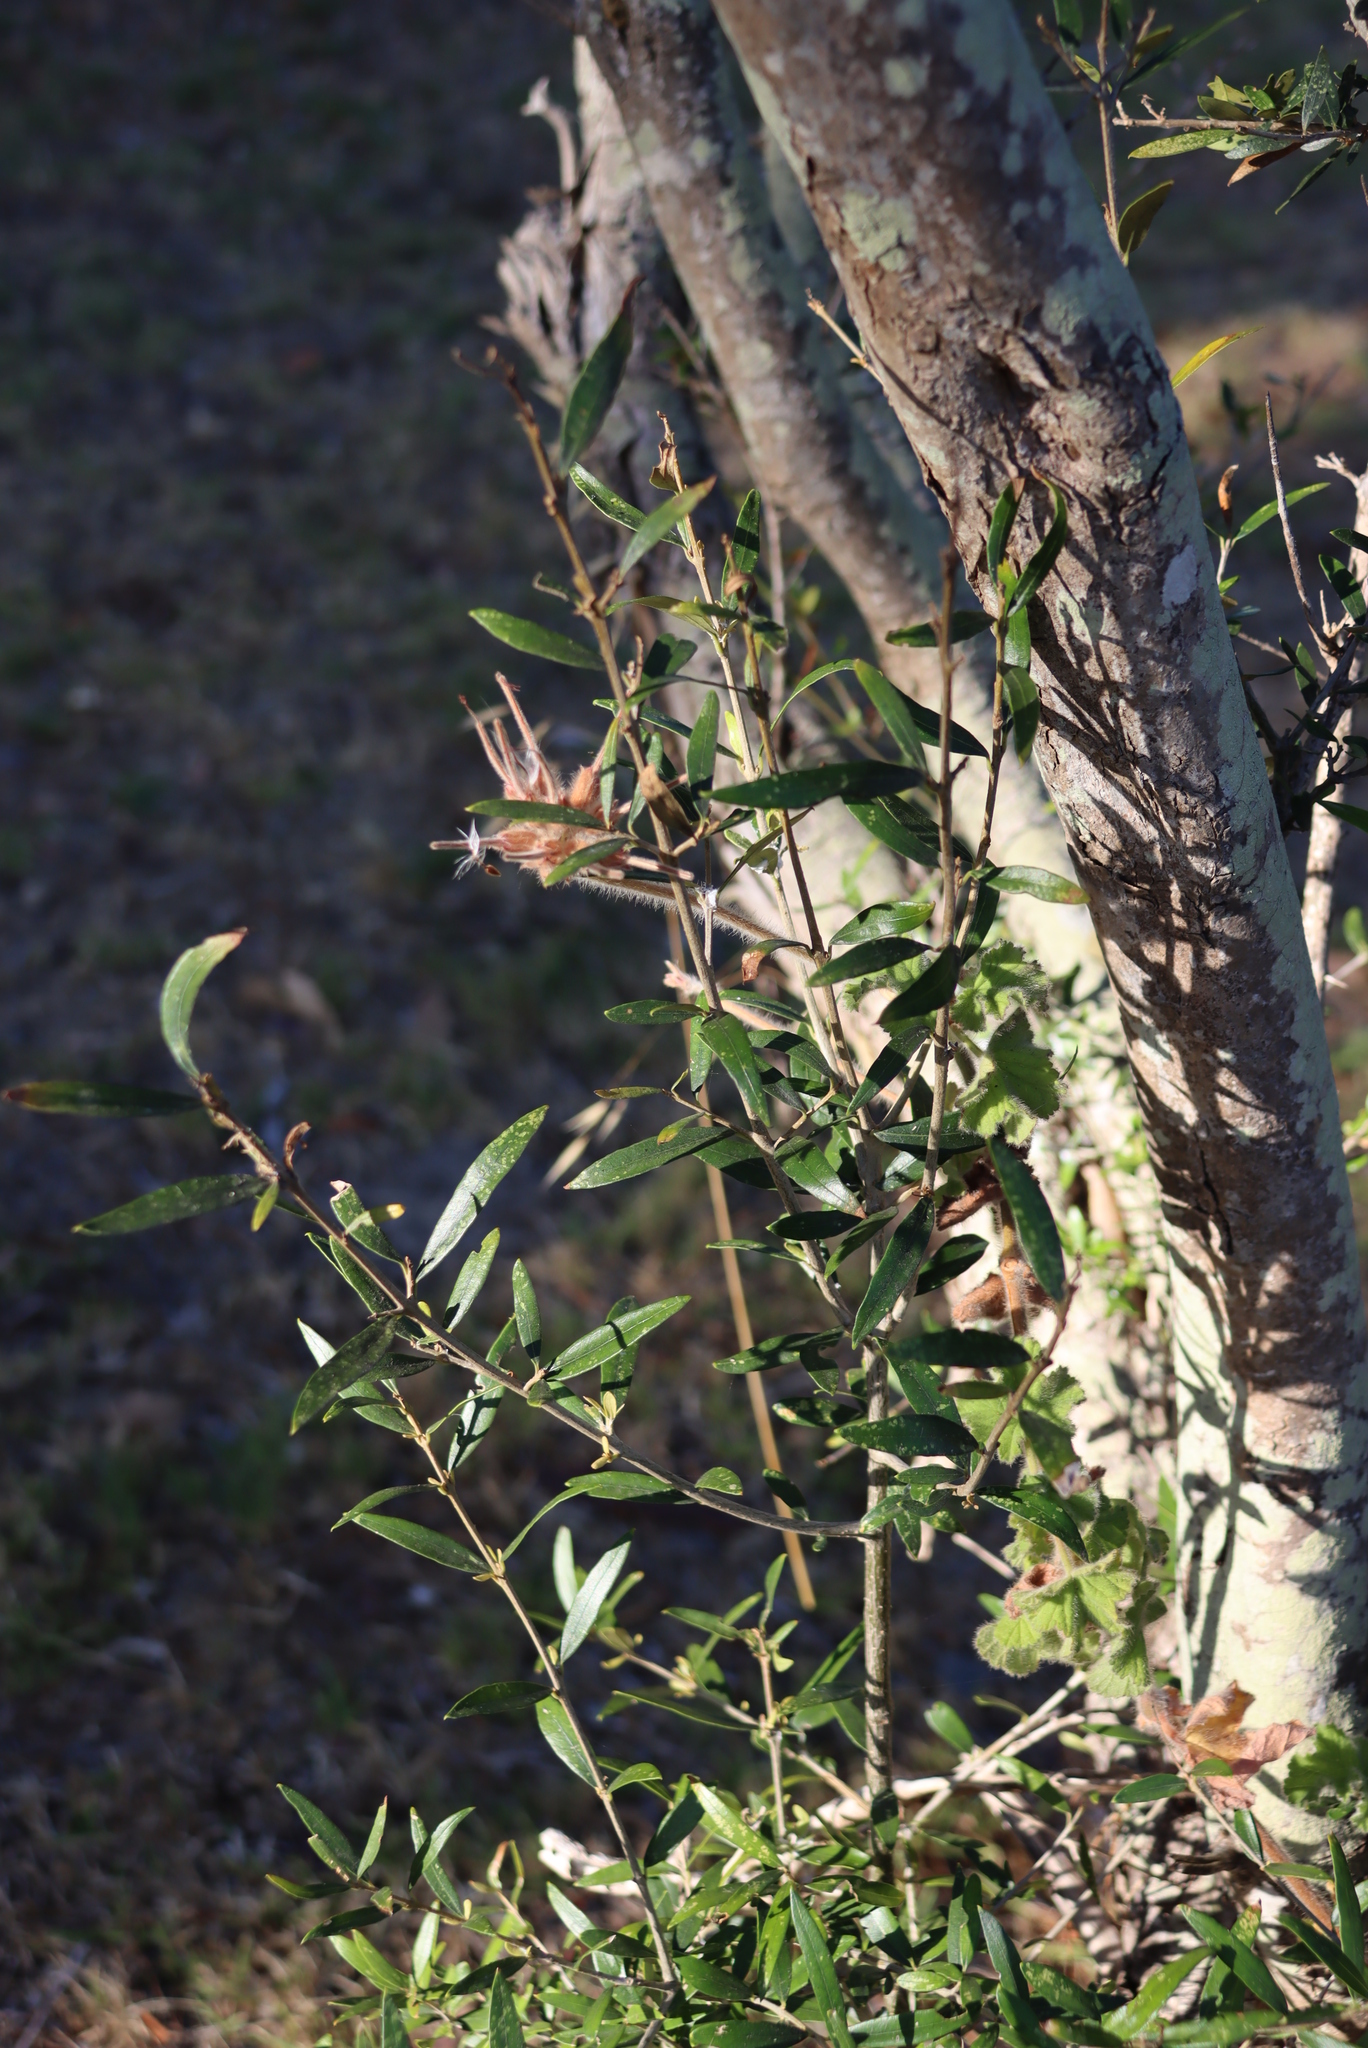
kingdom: Plantae
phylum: Tracheophyta
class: Magnoliopsida
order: Lamiales
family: Oleaceae
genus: Olea
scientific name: Olea europaea
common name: Olive
